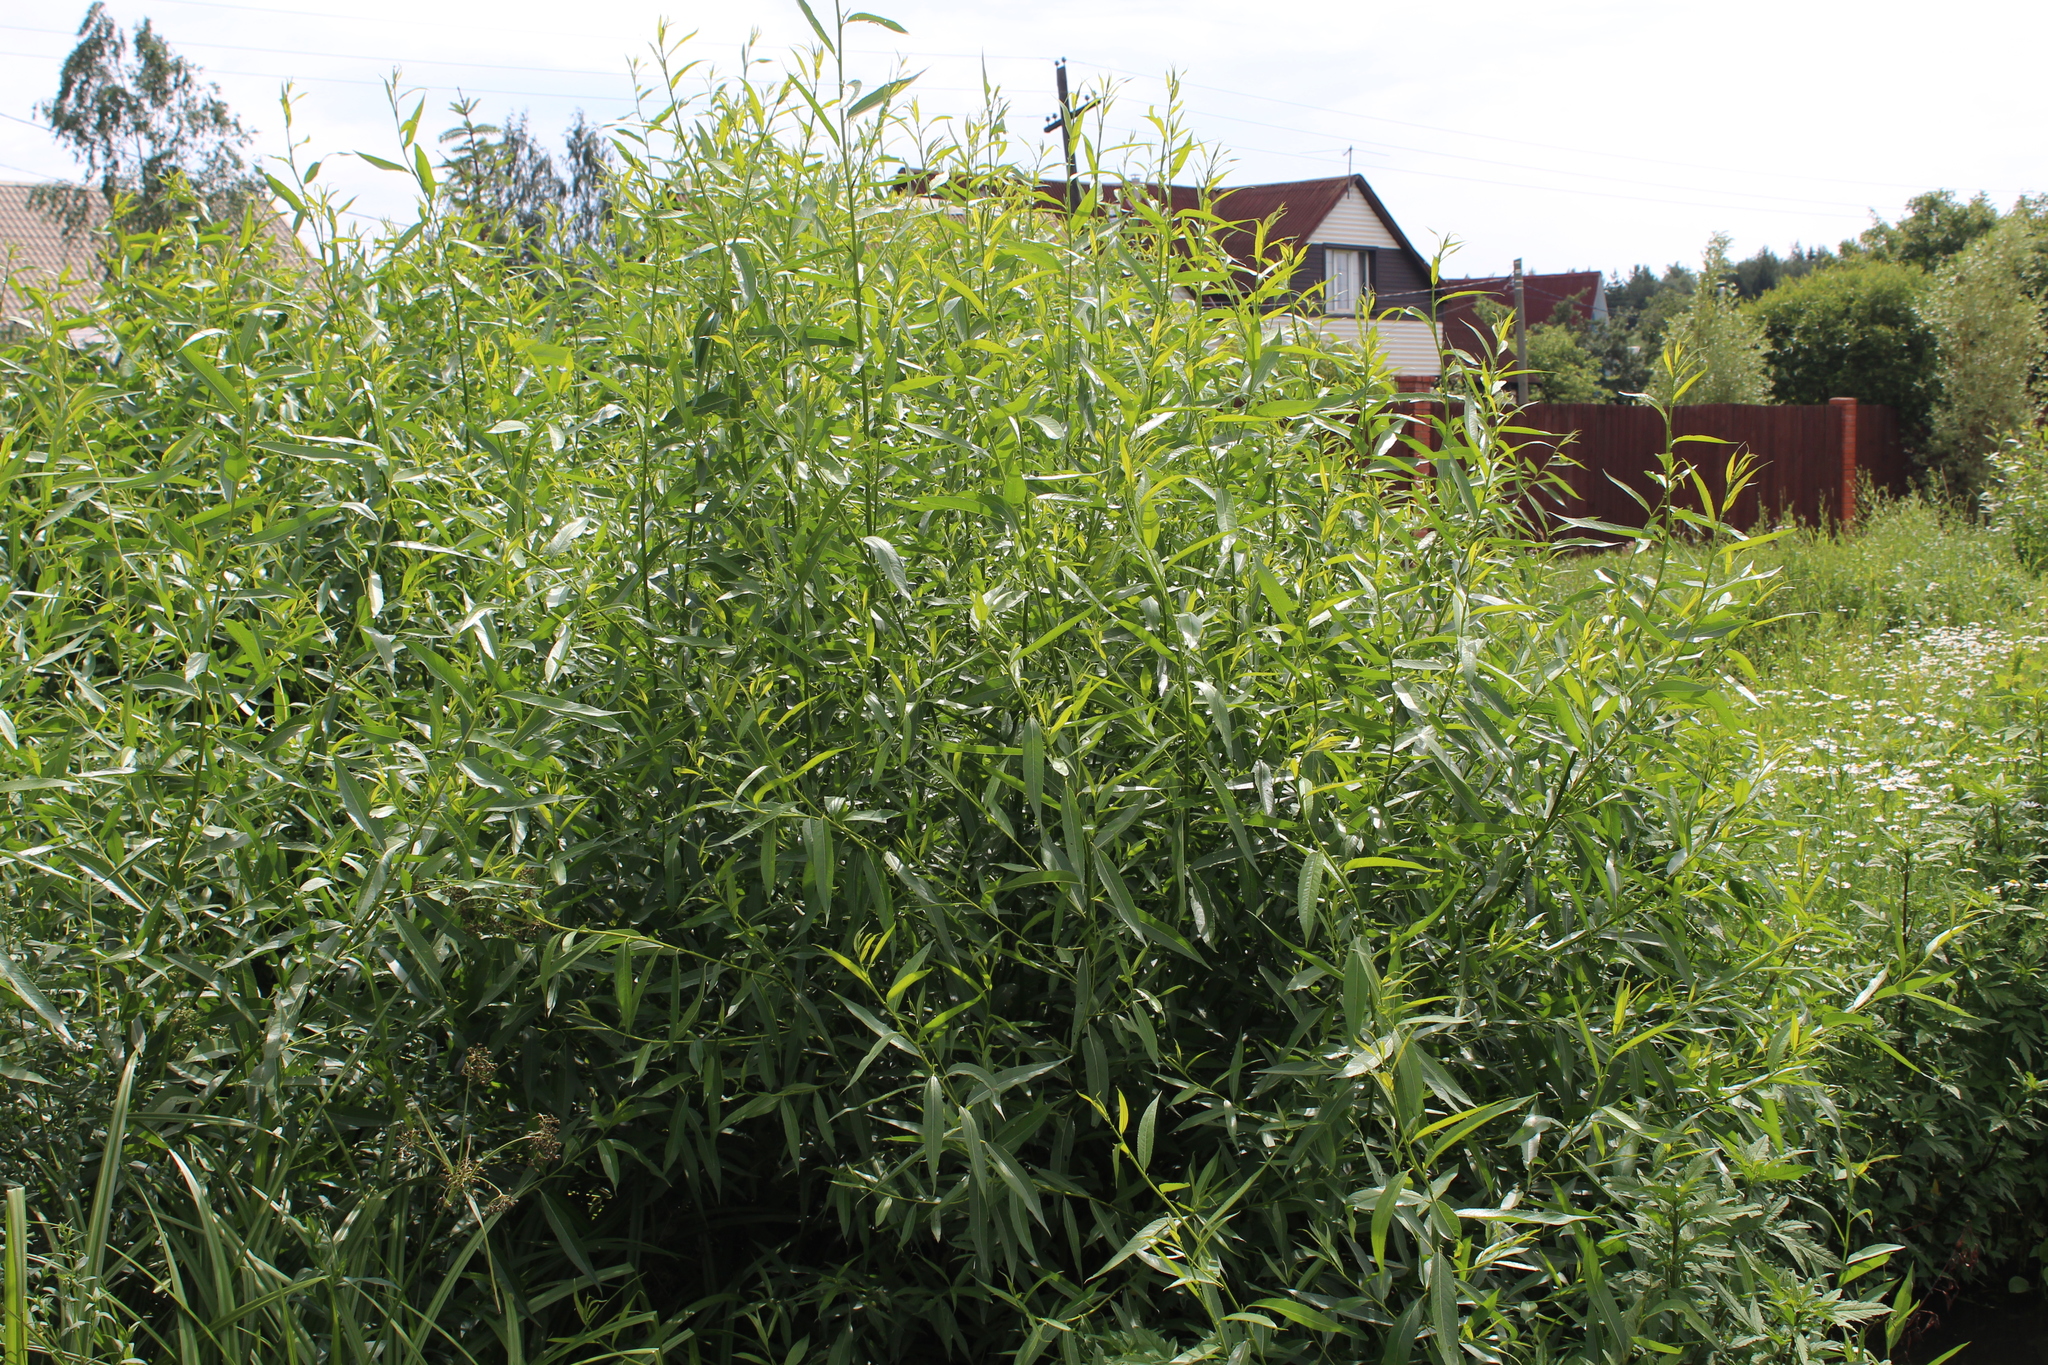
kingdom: Plantae
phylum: Tracheophyta
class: Magnoliopsida
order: Malpighiales
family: Salicaceae
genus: Salix
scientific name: Salix triandra
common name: Almond willow
